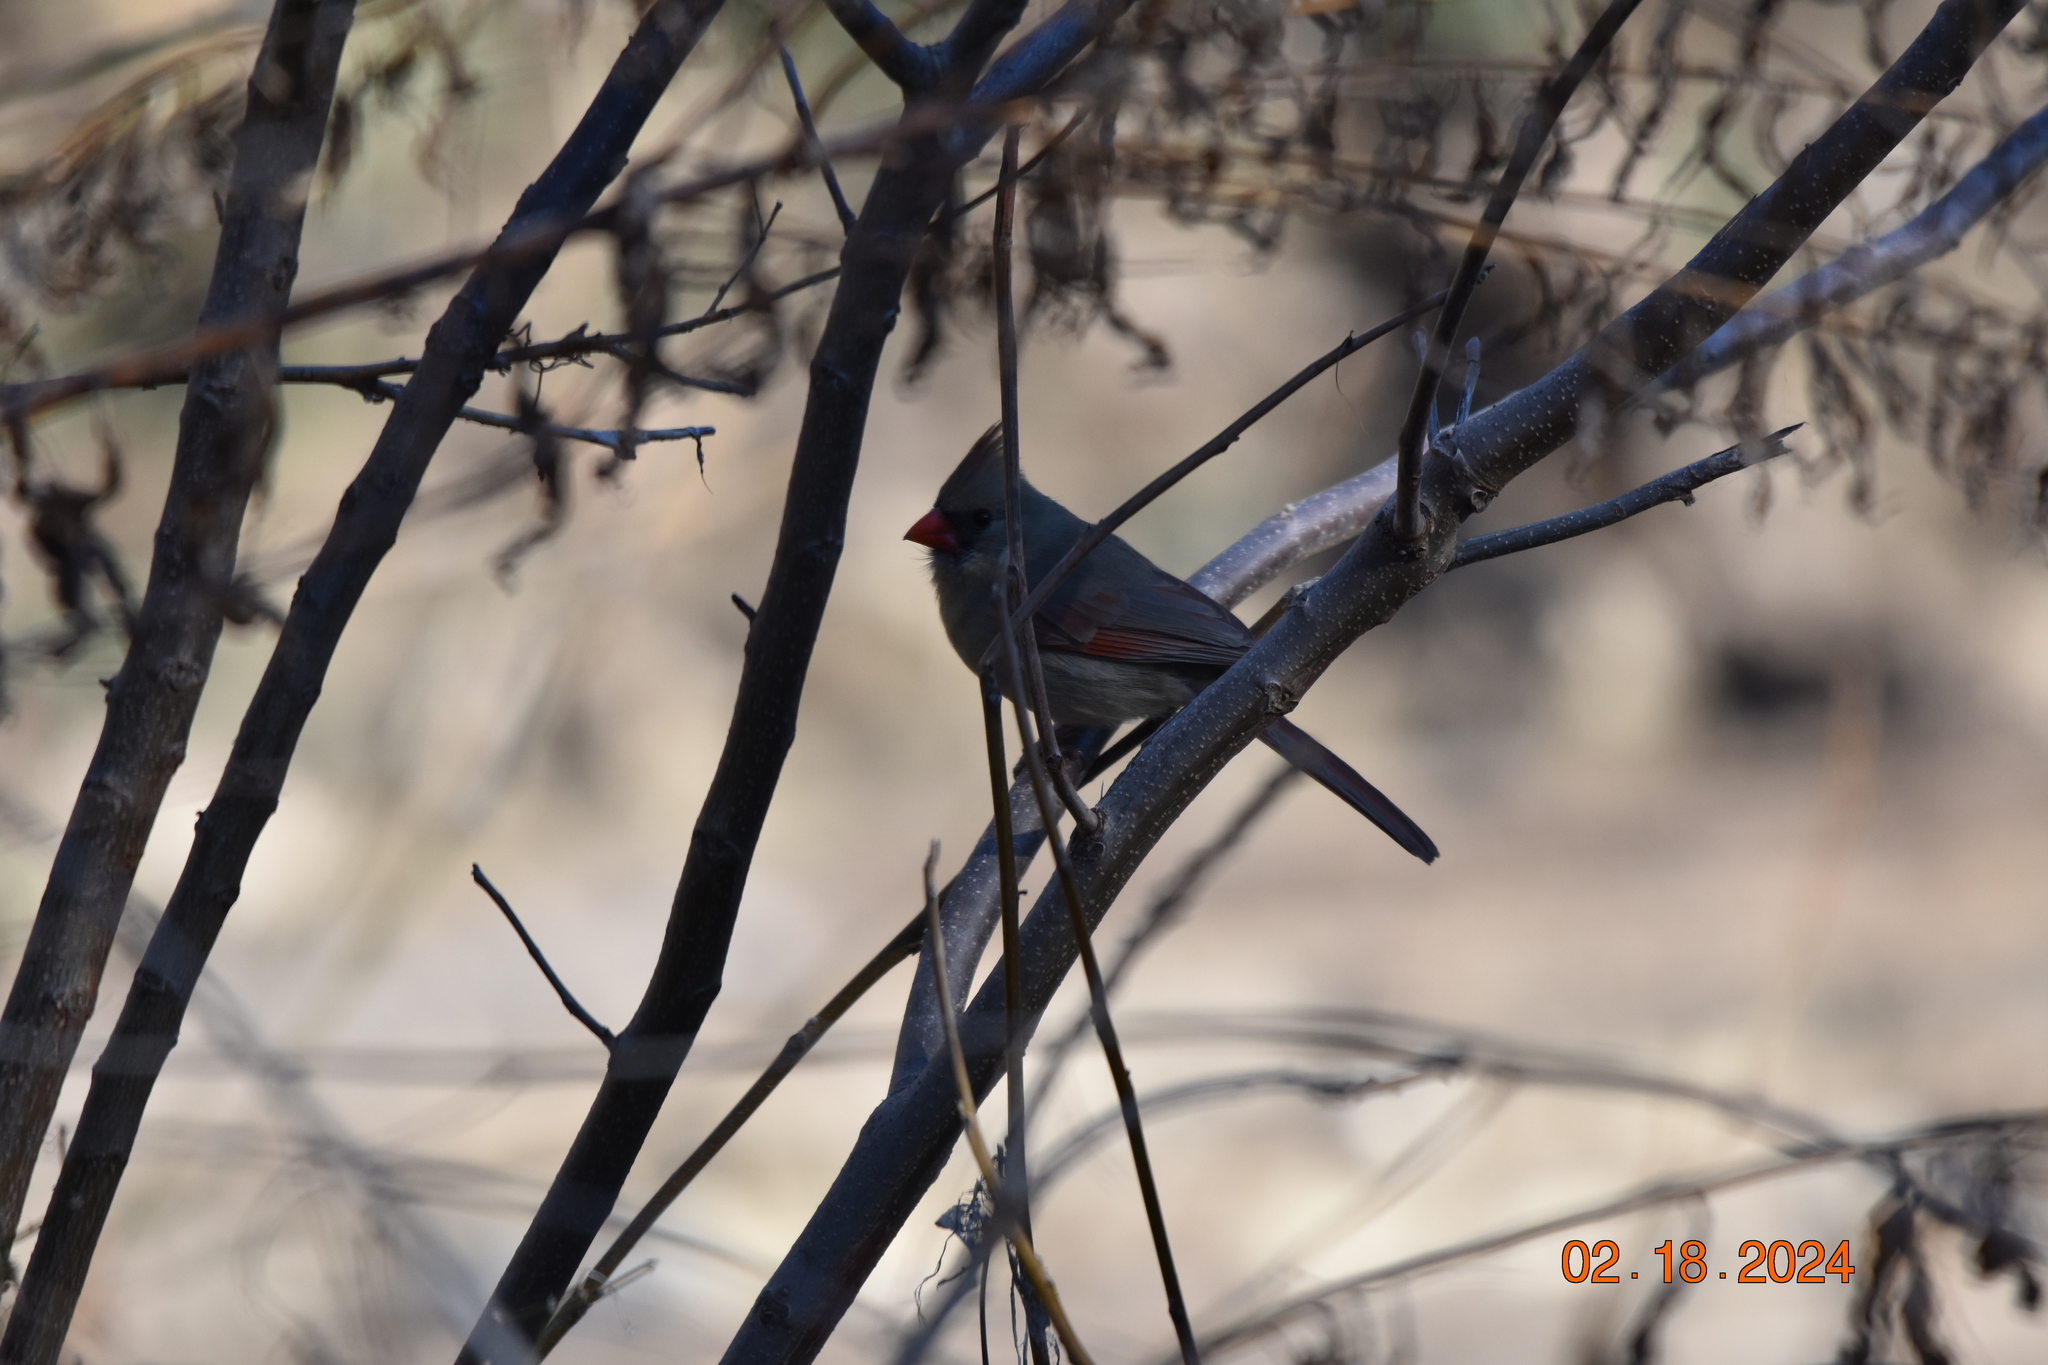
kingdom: Animalia
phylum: Chordata
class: Aves
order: Passeriformes
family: Cardinalidae
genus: Cardinalis
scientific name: Cardinalis cardinalis
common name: Northern cardinal
